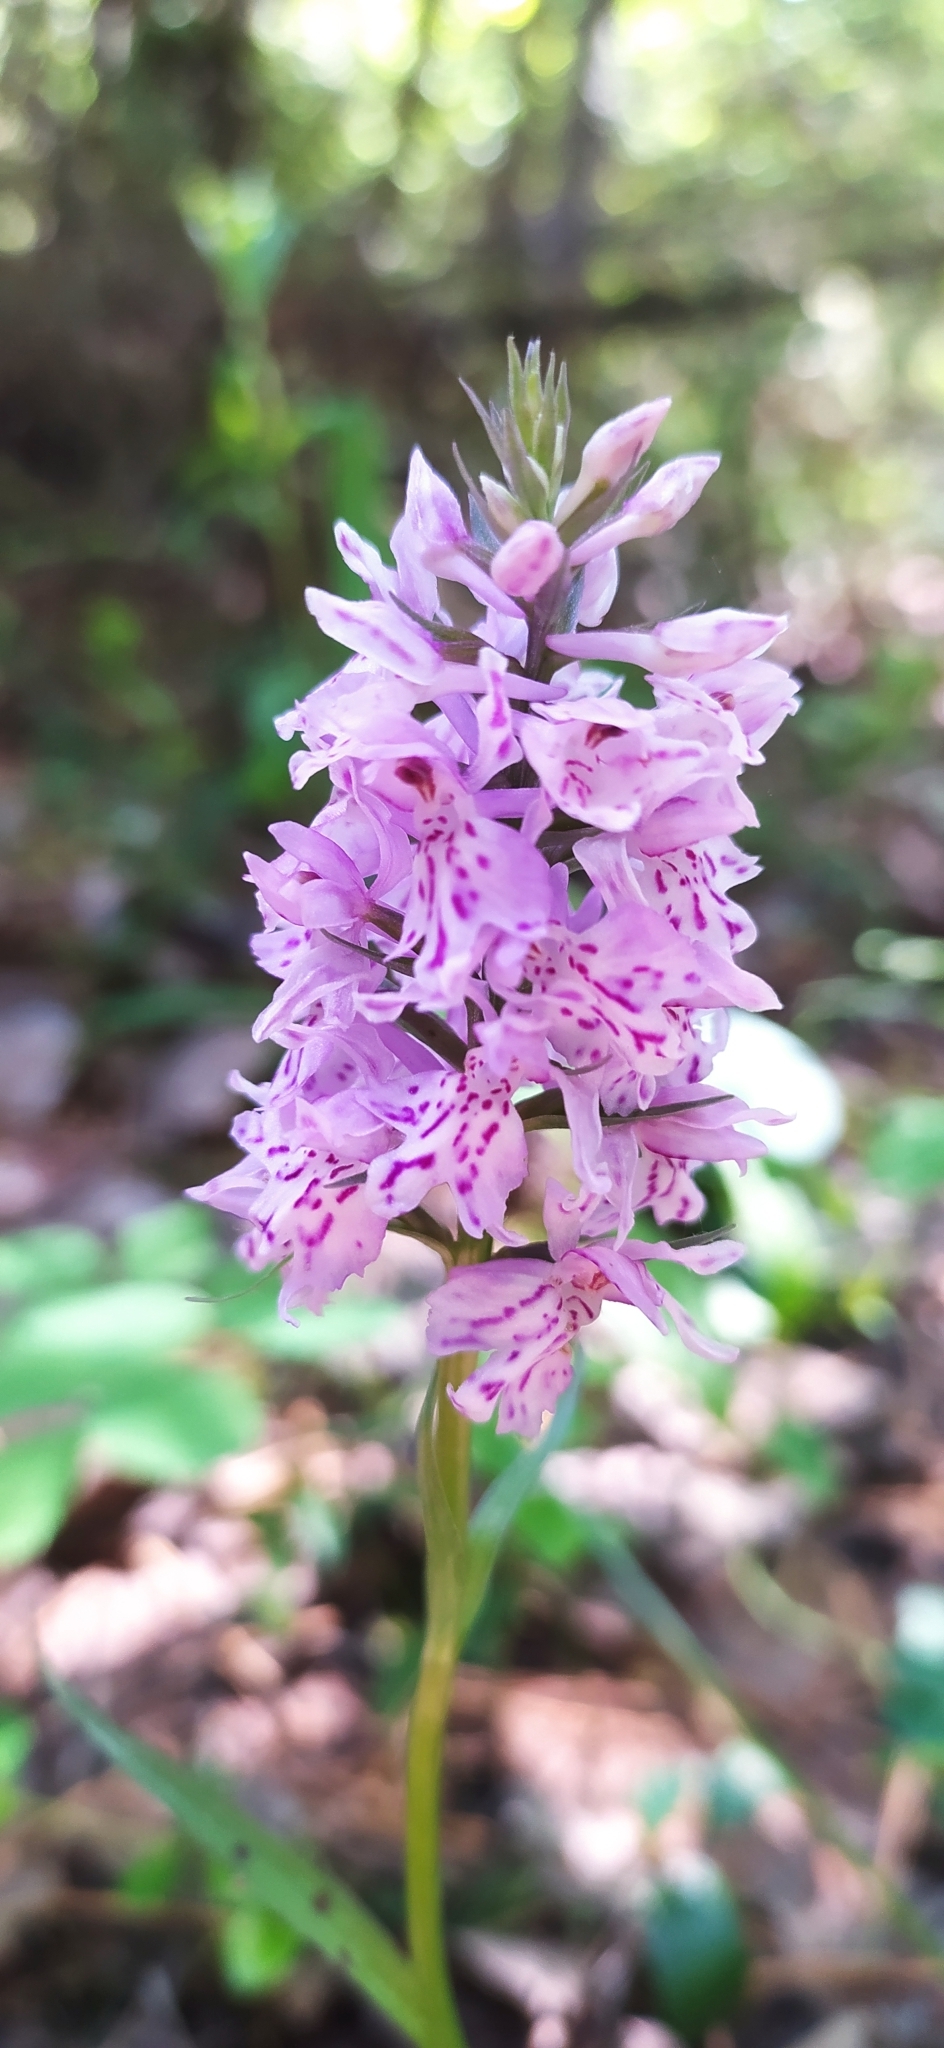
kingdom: Plantae
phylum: Tracheophyta
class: Liliopsida
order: Asparagales
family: Orchidaceae
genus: Dactylorhiza
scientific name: Dactylorhiza maculata
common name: Heath spotted-orchid
